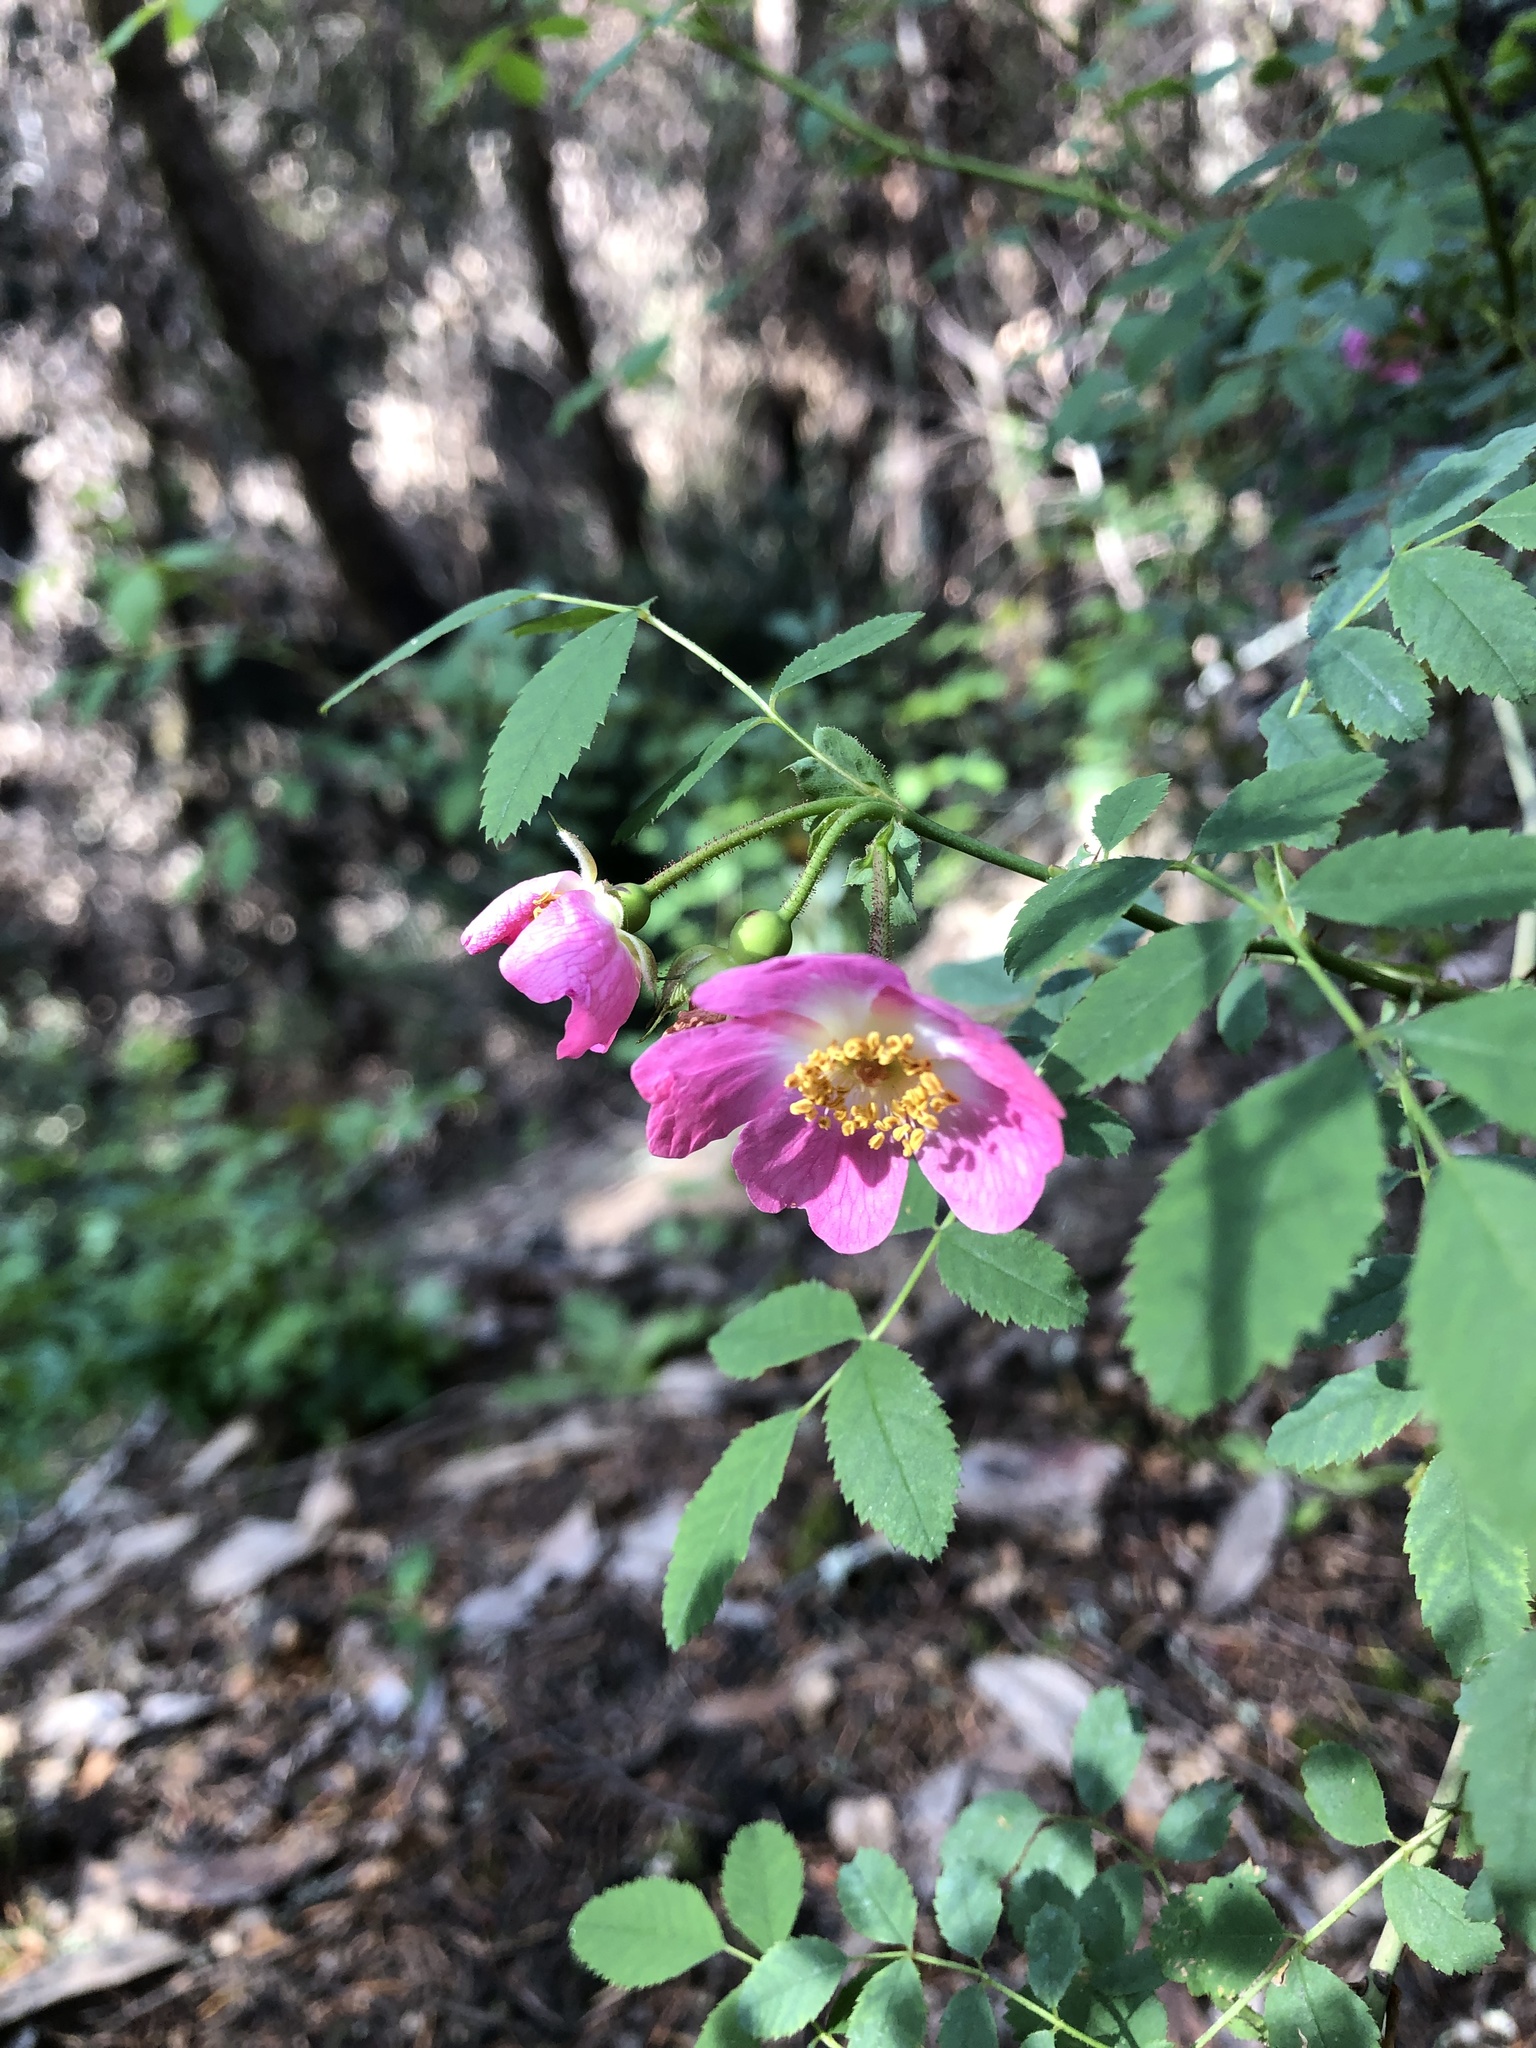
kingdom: Plantae
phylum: Tracheophyta
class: Magnoliopsida
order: Rosales
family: Rosaceae
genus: Rosa
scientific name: Rosa gymnocarpa
